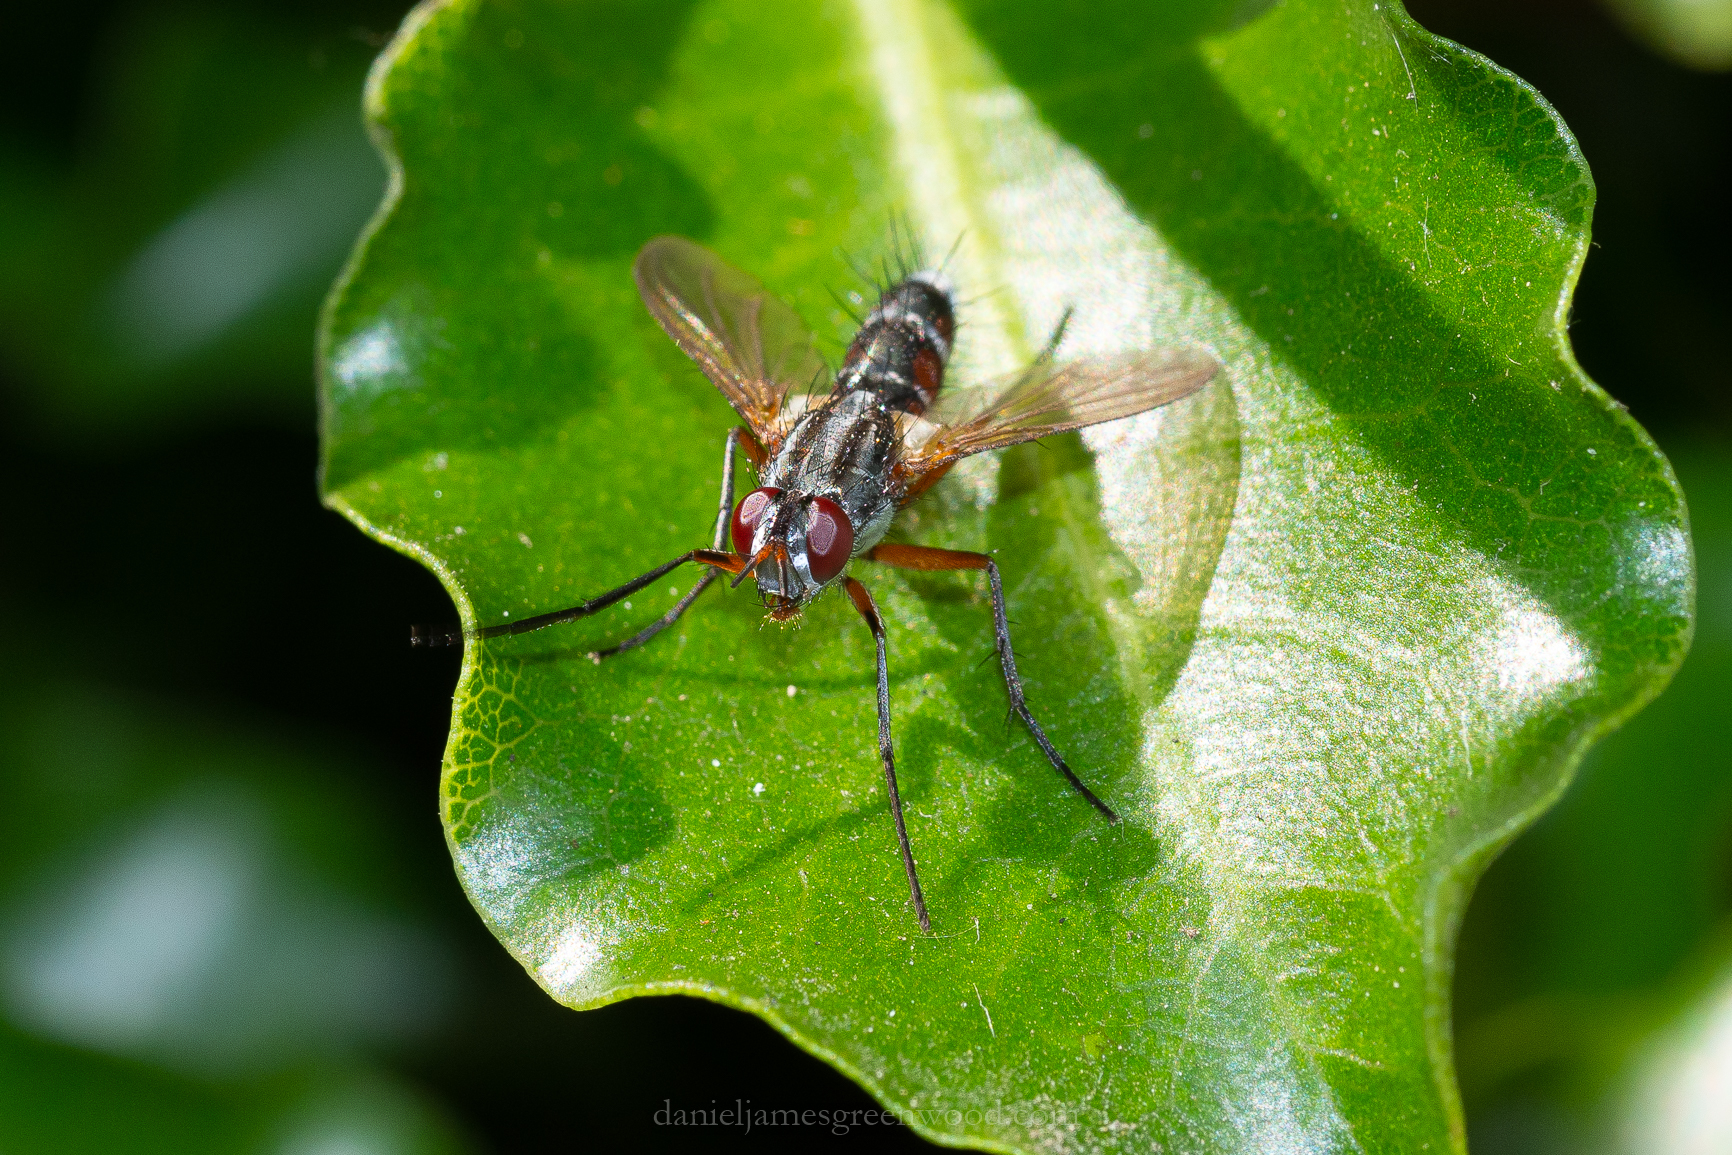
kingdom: Animalia
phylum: Arthropoda
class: Insecta
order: Diptera
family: Tachinidae
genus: Mintho
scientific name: Mintho rufiventris
